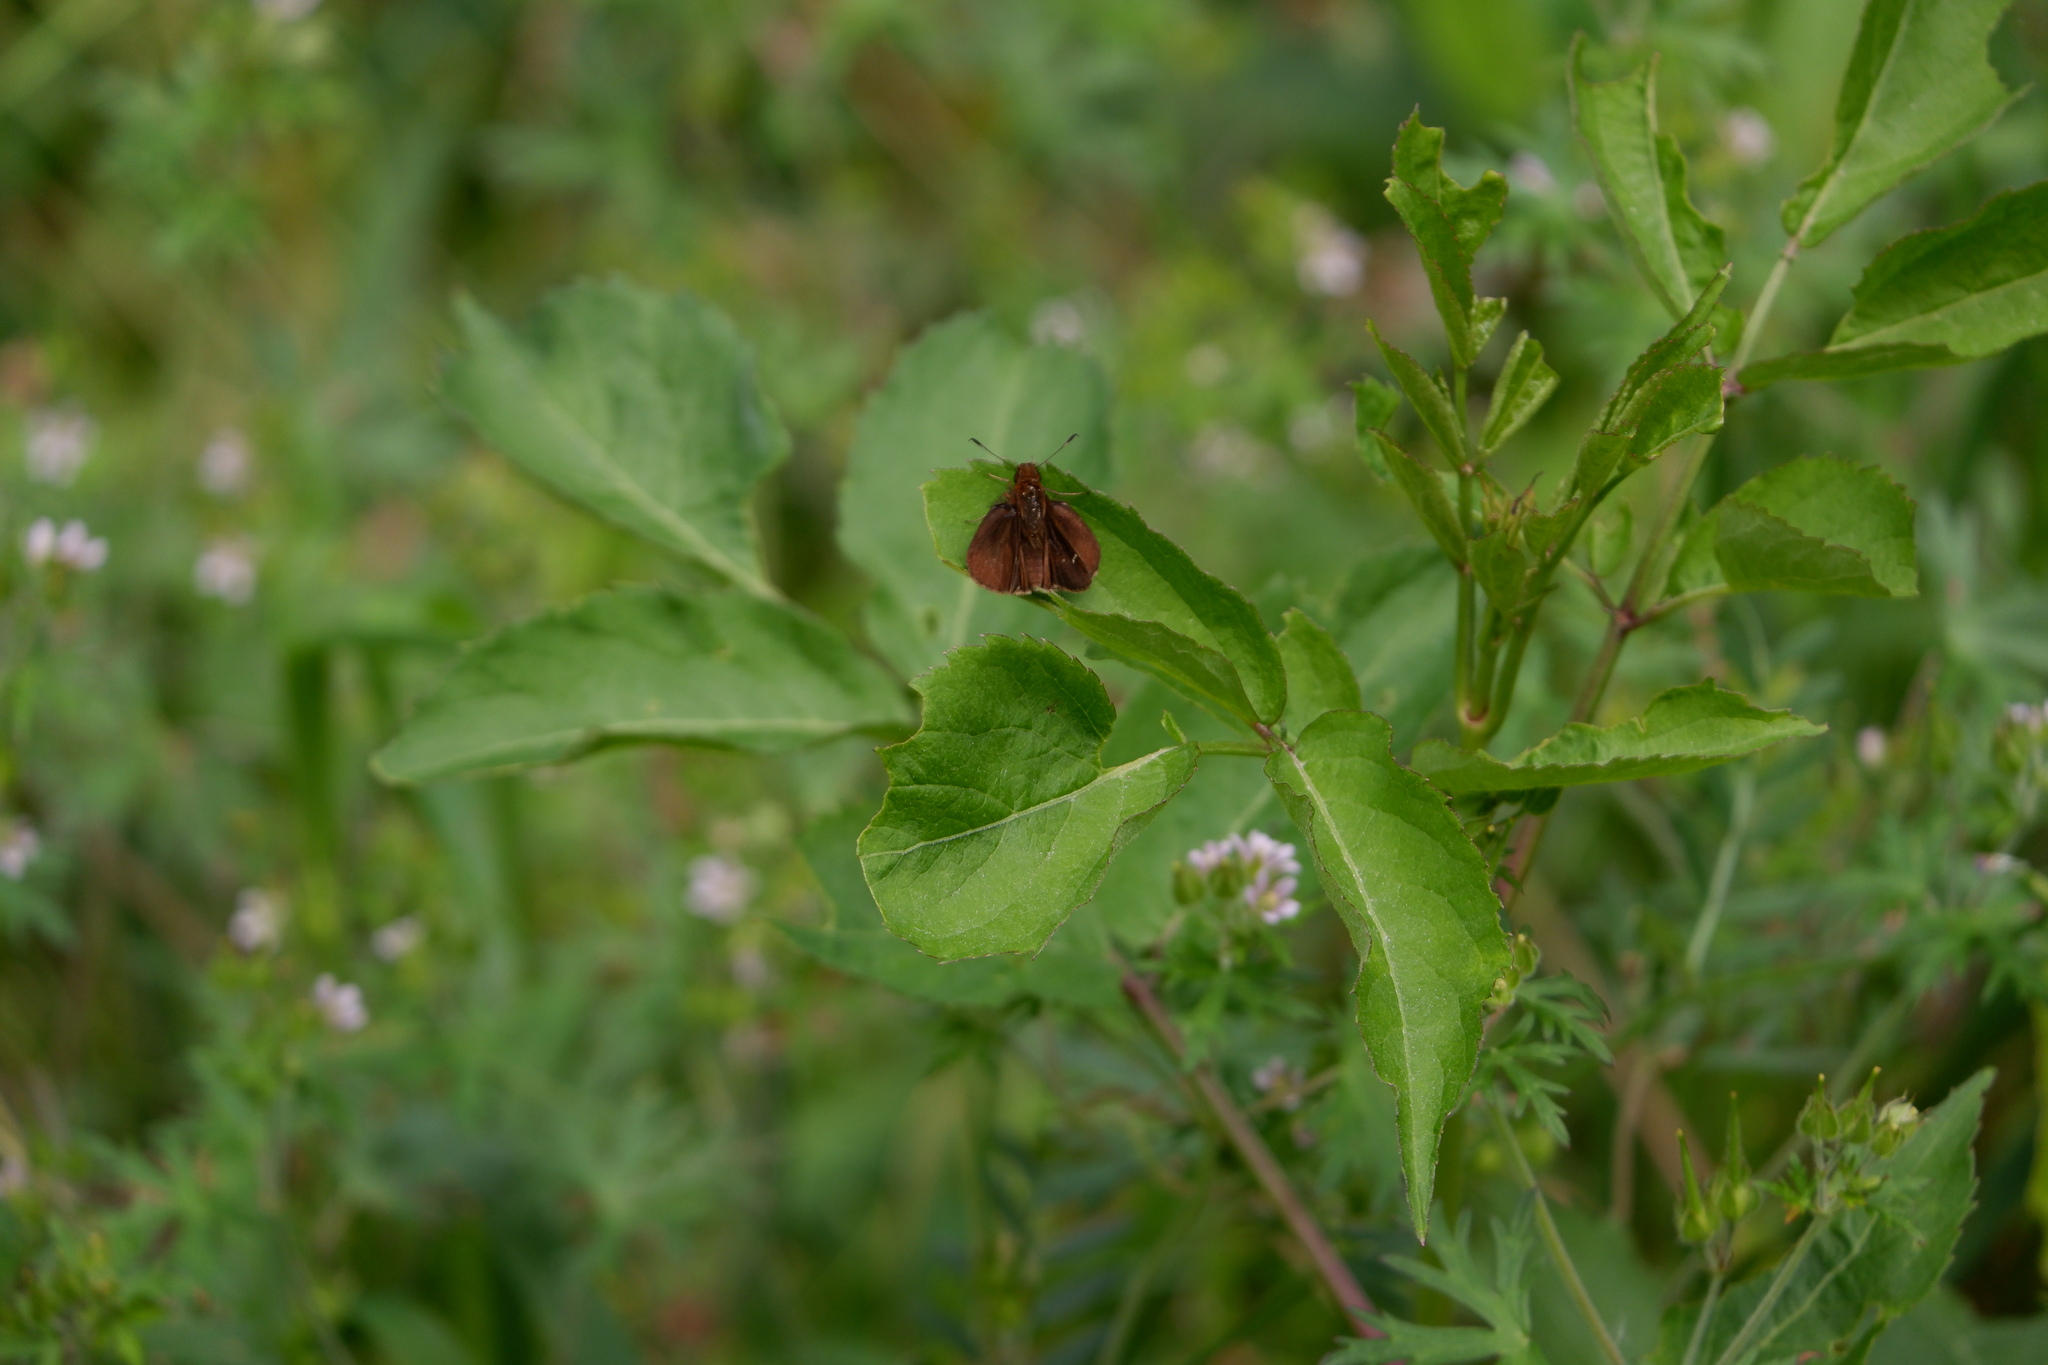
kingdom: Animalia
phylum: Arthropoda
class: Insecta
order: Lepidoptera
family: Hesperiidae
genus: Lerema
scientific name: Lerema accius
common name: Clouded skipper
